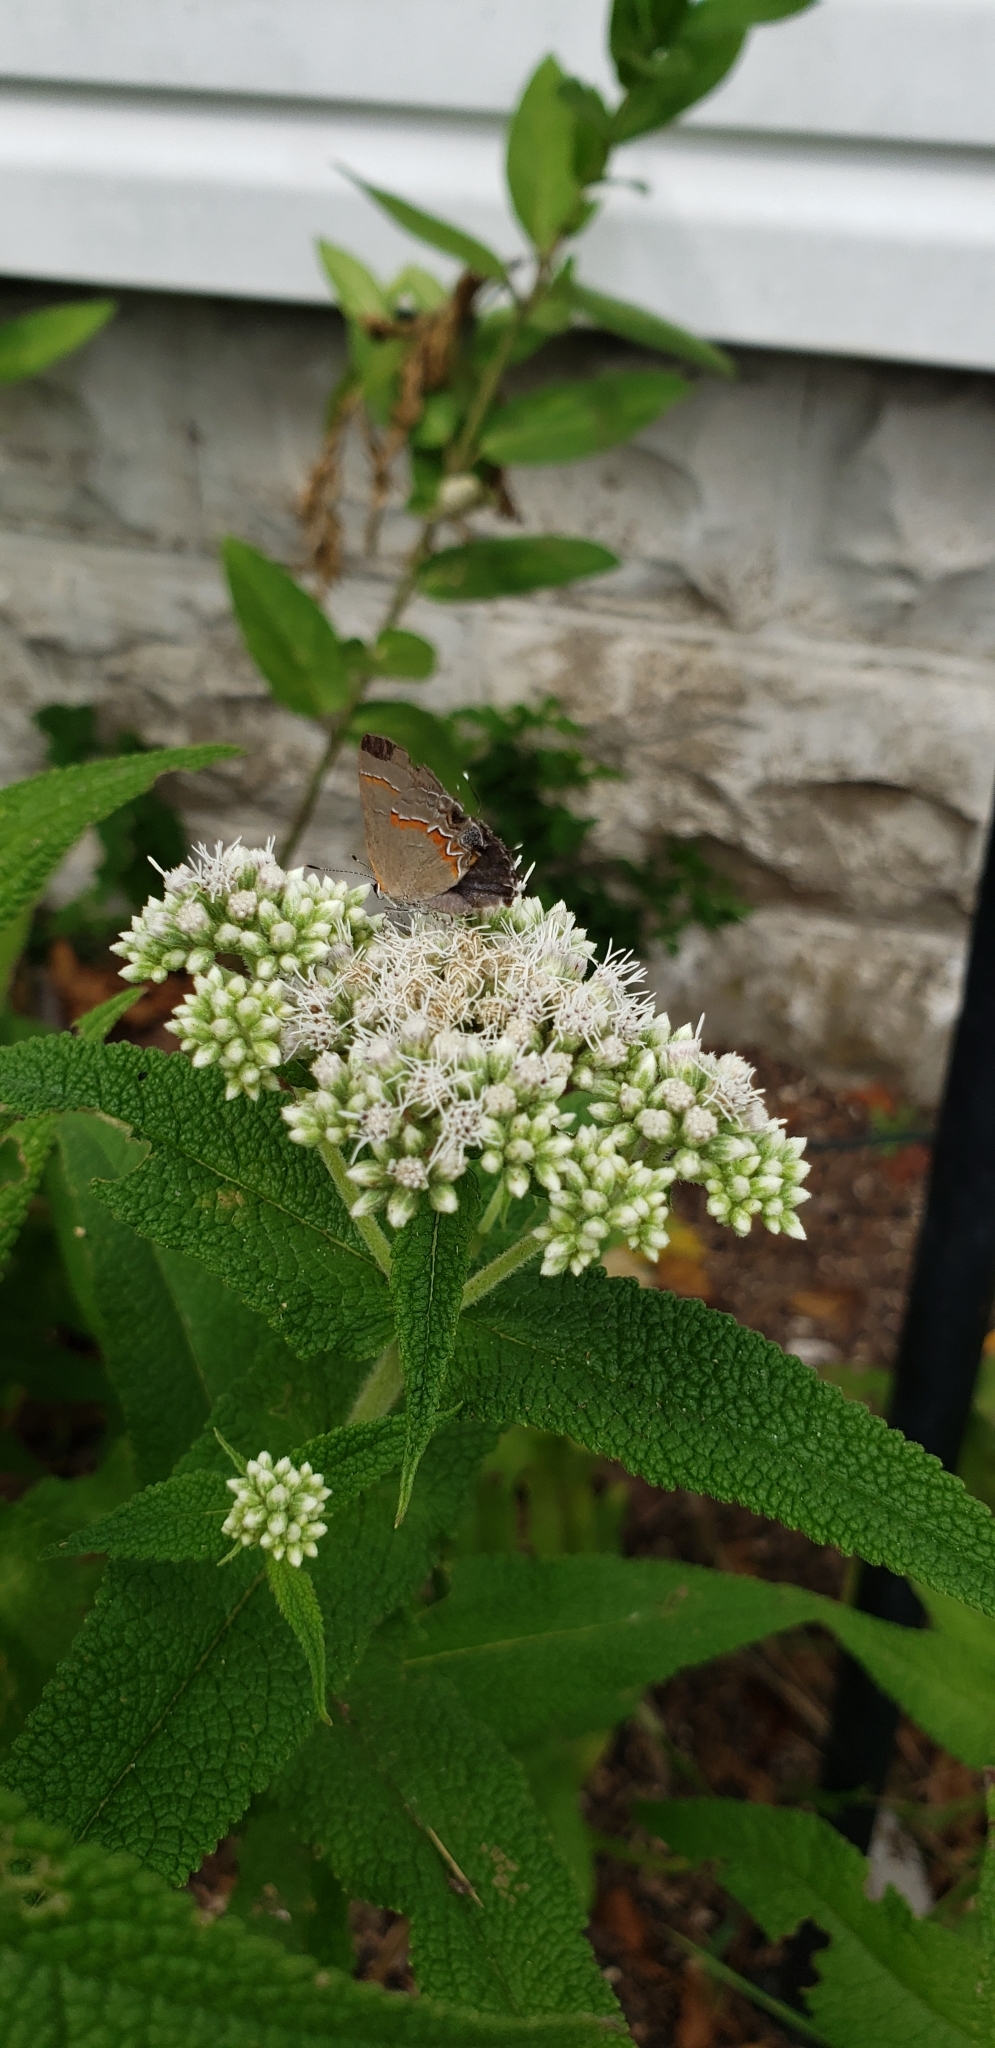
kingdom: Animalia
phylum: Arthropoda
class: Insecta
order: Lepidoptera
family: Lycaenidae
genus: Calycopis
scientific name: Calycopis cecrops
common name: Red-banded hairstreak
